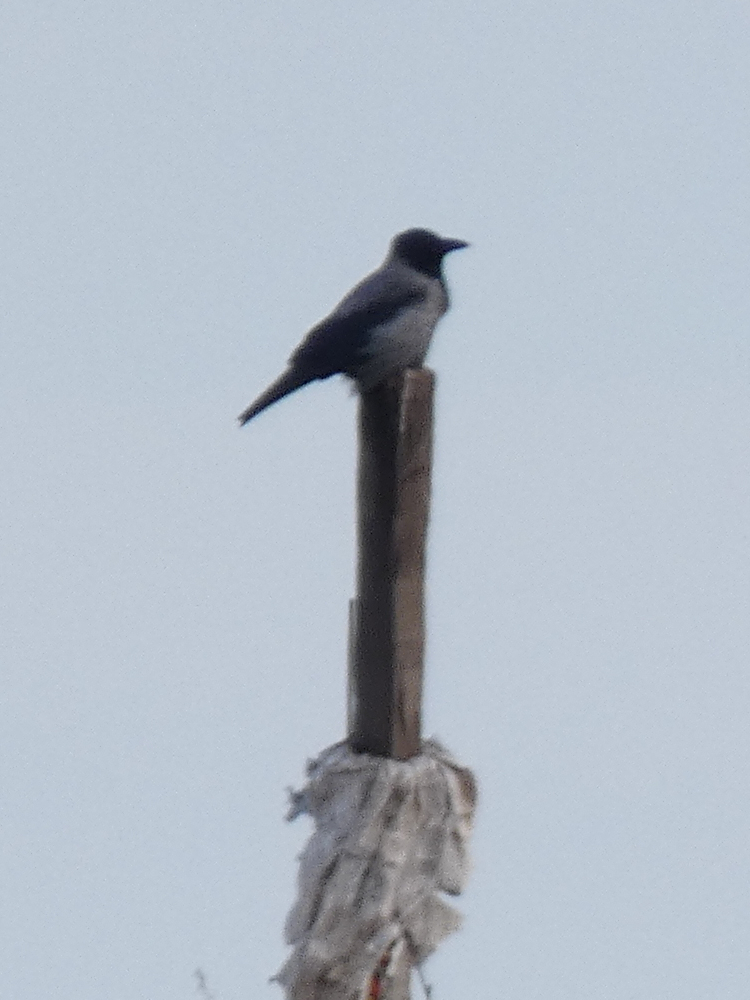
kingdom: Animalia
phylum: Chordata
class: Aves
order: Passeriformes
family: Corvidae
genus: Corvus
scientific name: Corvus cornix
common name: Hooded crow
